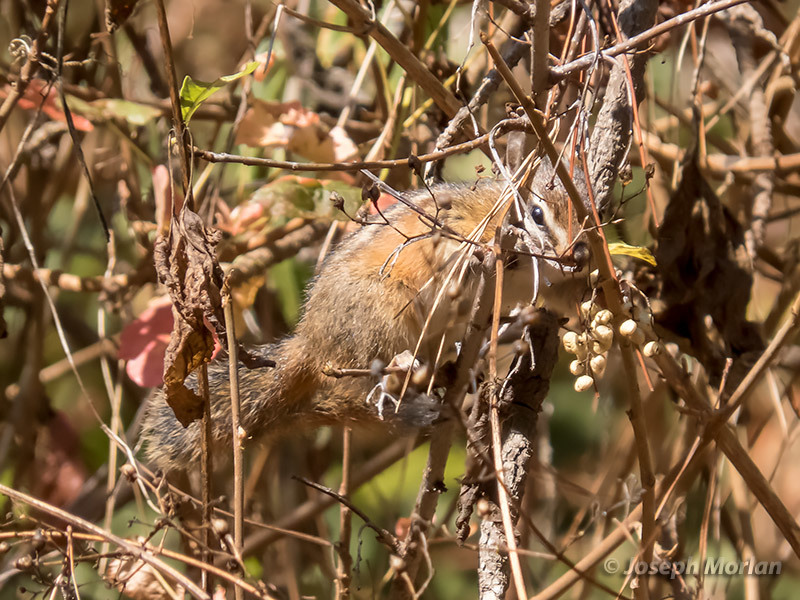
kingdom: Animalia
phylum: Chordata
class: Mammalia
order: Rodentia
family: Sciuridae
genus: Tamias
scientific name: Tamias merriami
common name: Merriam's chipmunk
